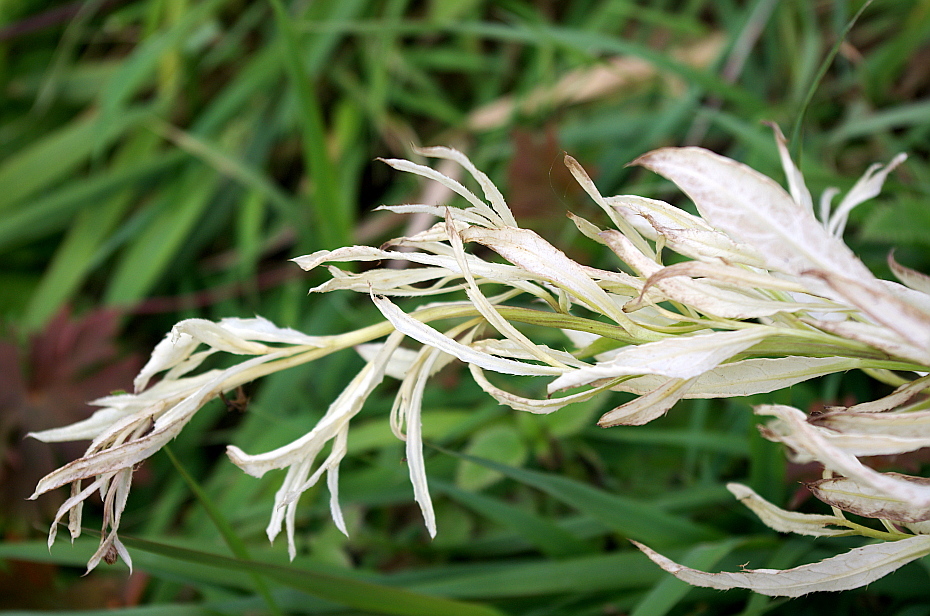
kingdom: Bacteria
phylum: Proteobacteria
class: Gammaproteobacteria
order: Pseudomonadales
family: Pseudomonadaceae
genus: Pseudomonas
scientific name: Pseudomonas syringae
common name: Bacterial speck
